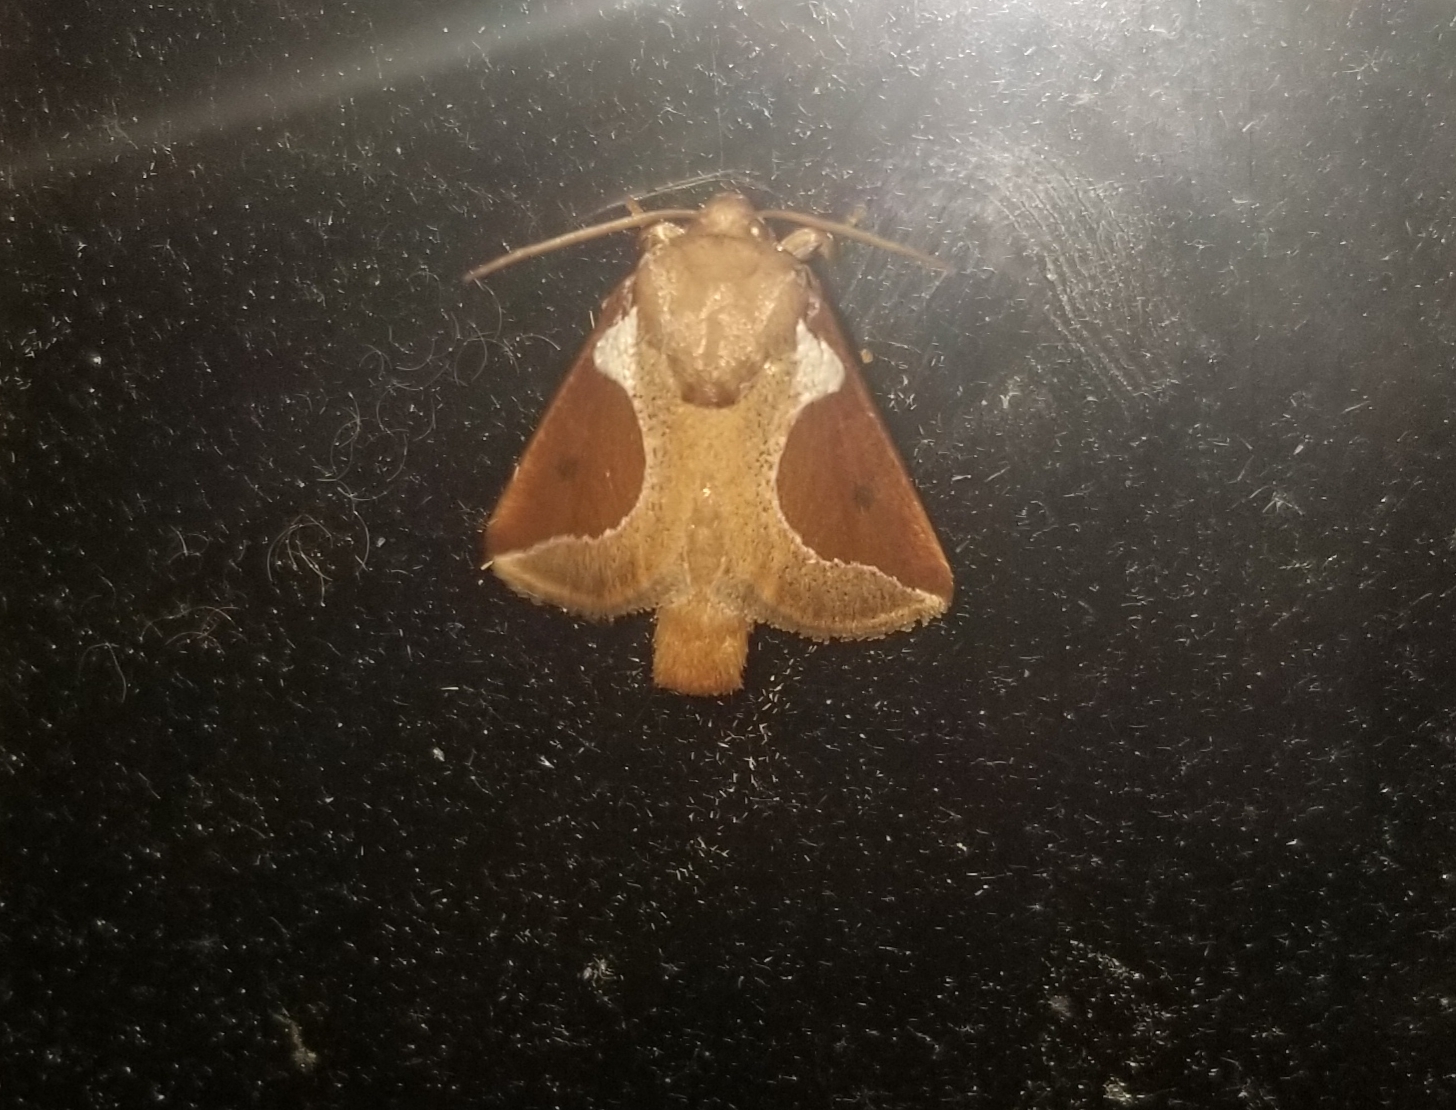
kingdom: Animalia
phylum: Arthropoda
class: Insecta
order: Lepidoptera
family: Limacodidae
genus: Prolimacodes
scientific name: Prolimacodes badia
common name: Skiff moth
